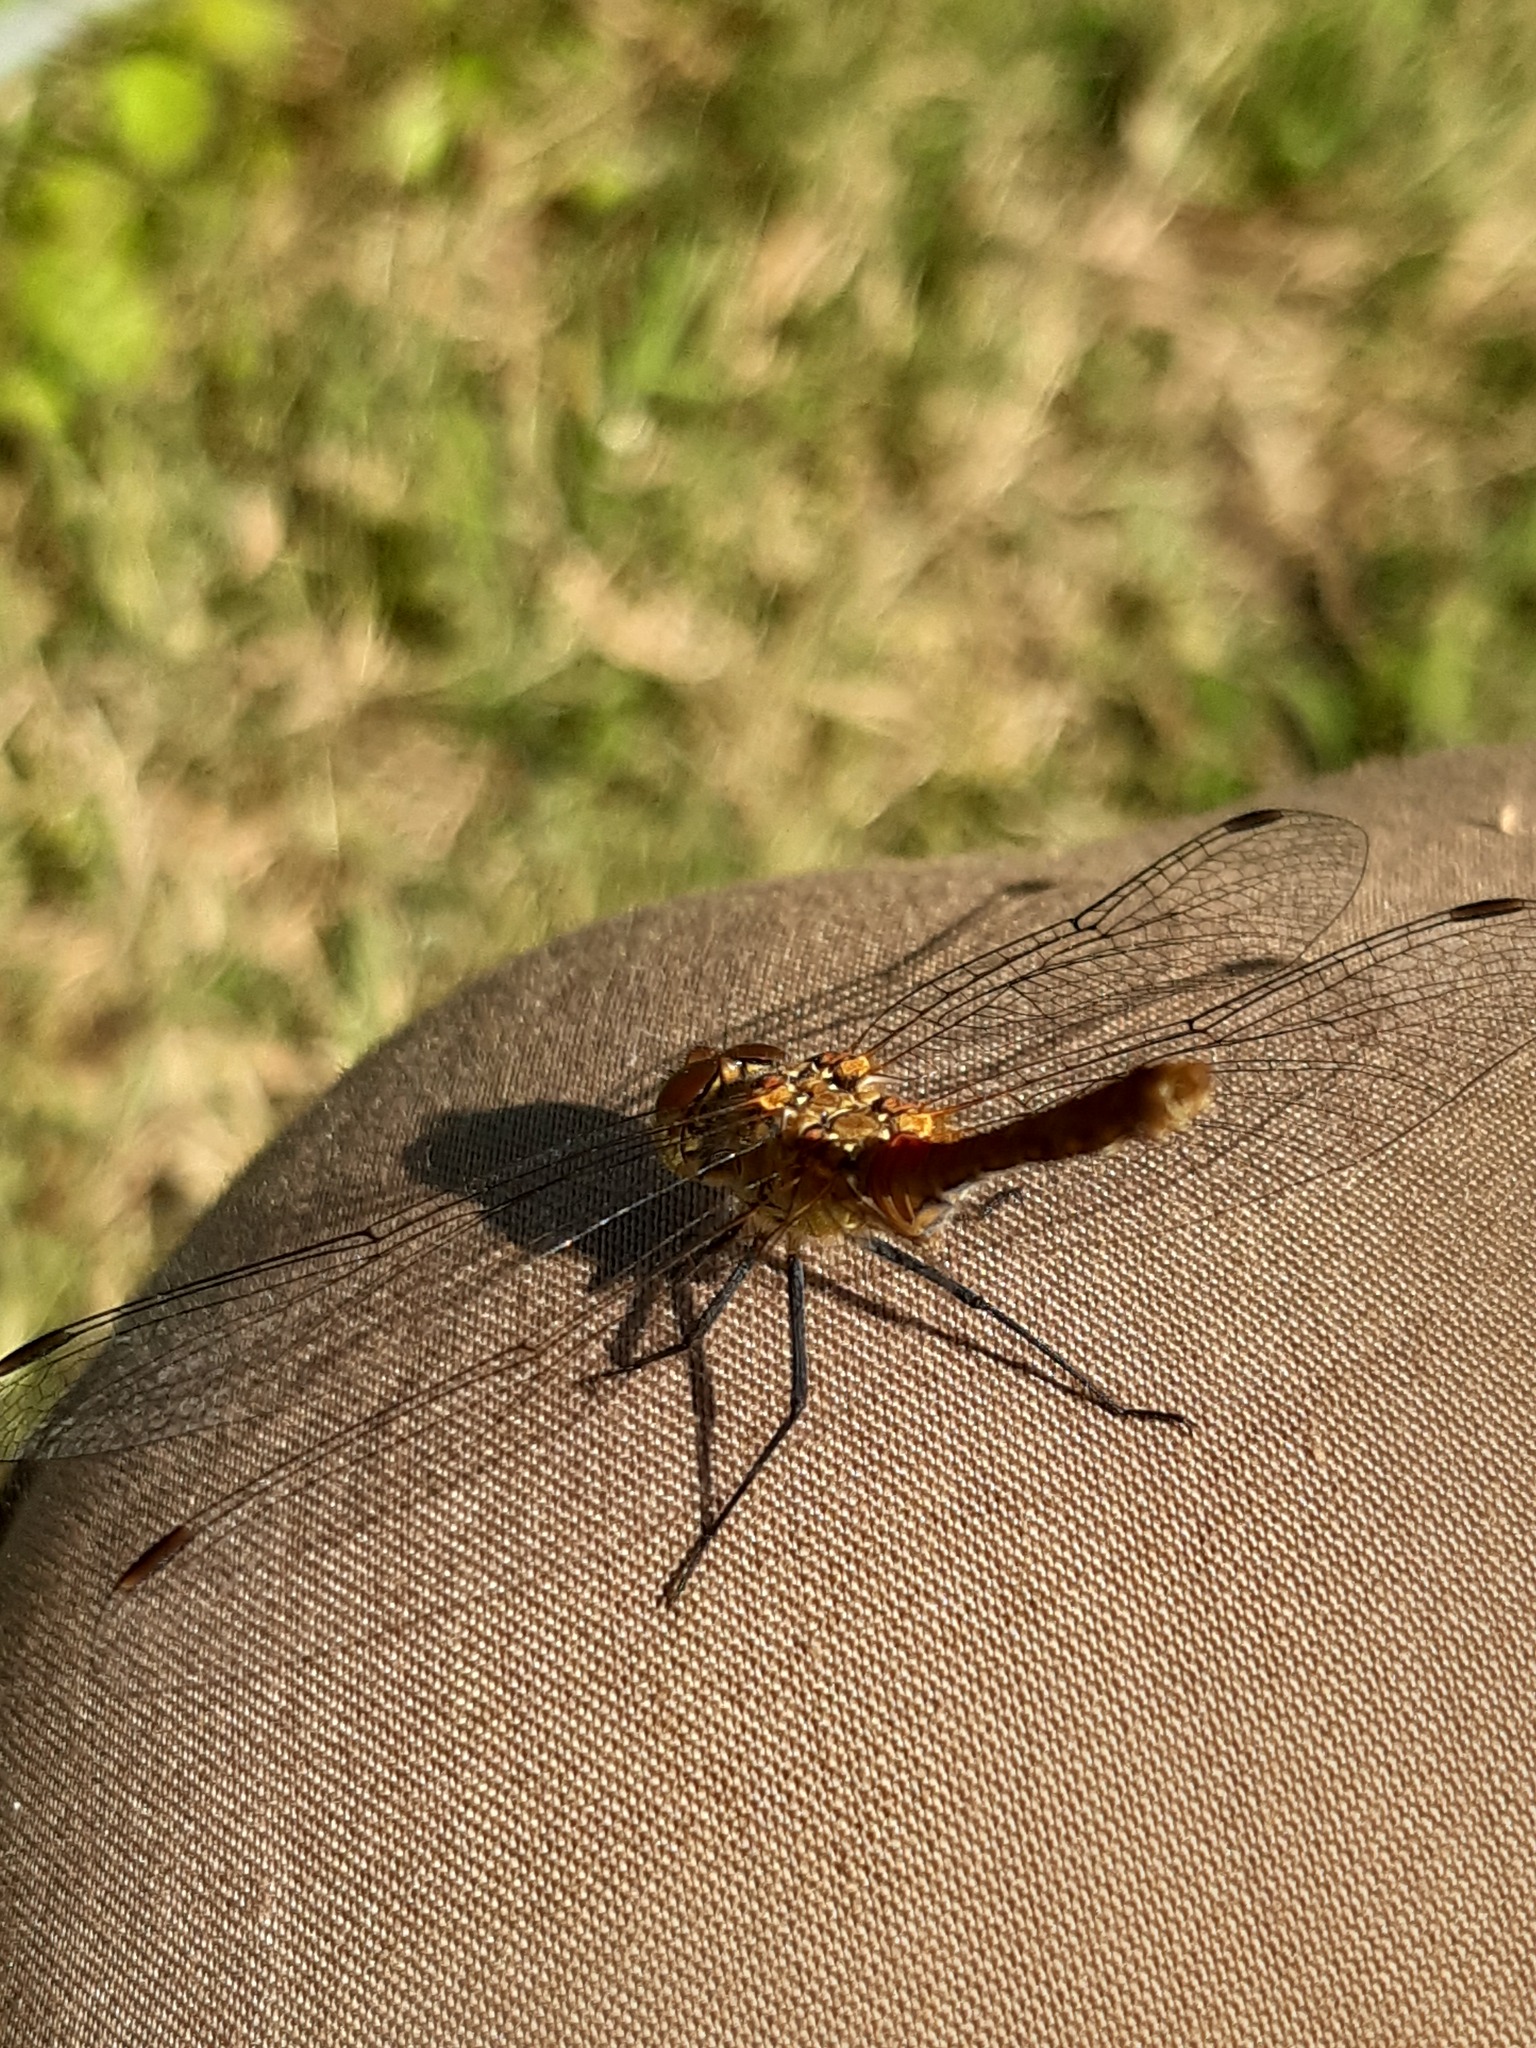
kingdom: Animalia
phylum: Arthropoda
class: Insecta
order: Odonata
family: Libellulidae
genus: Sympetrum
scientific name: Sympetrum sanguineum
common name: Ruddy darter
